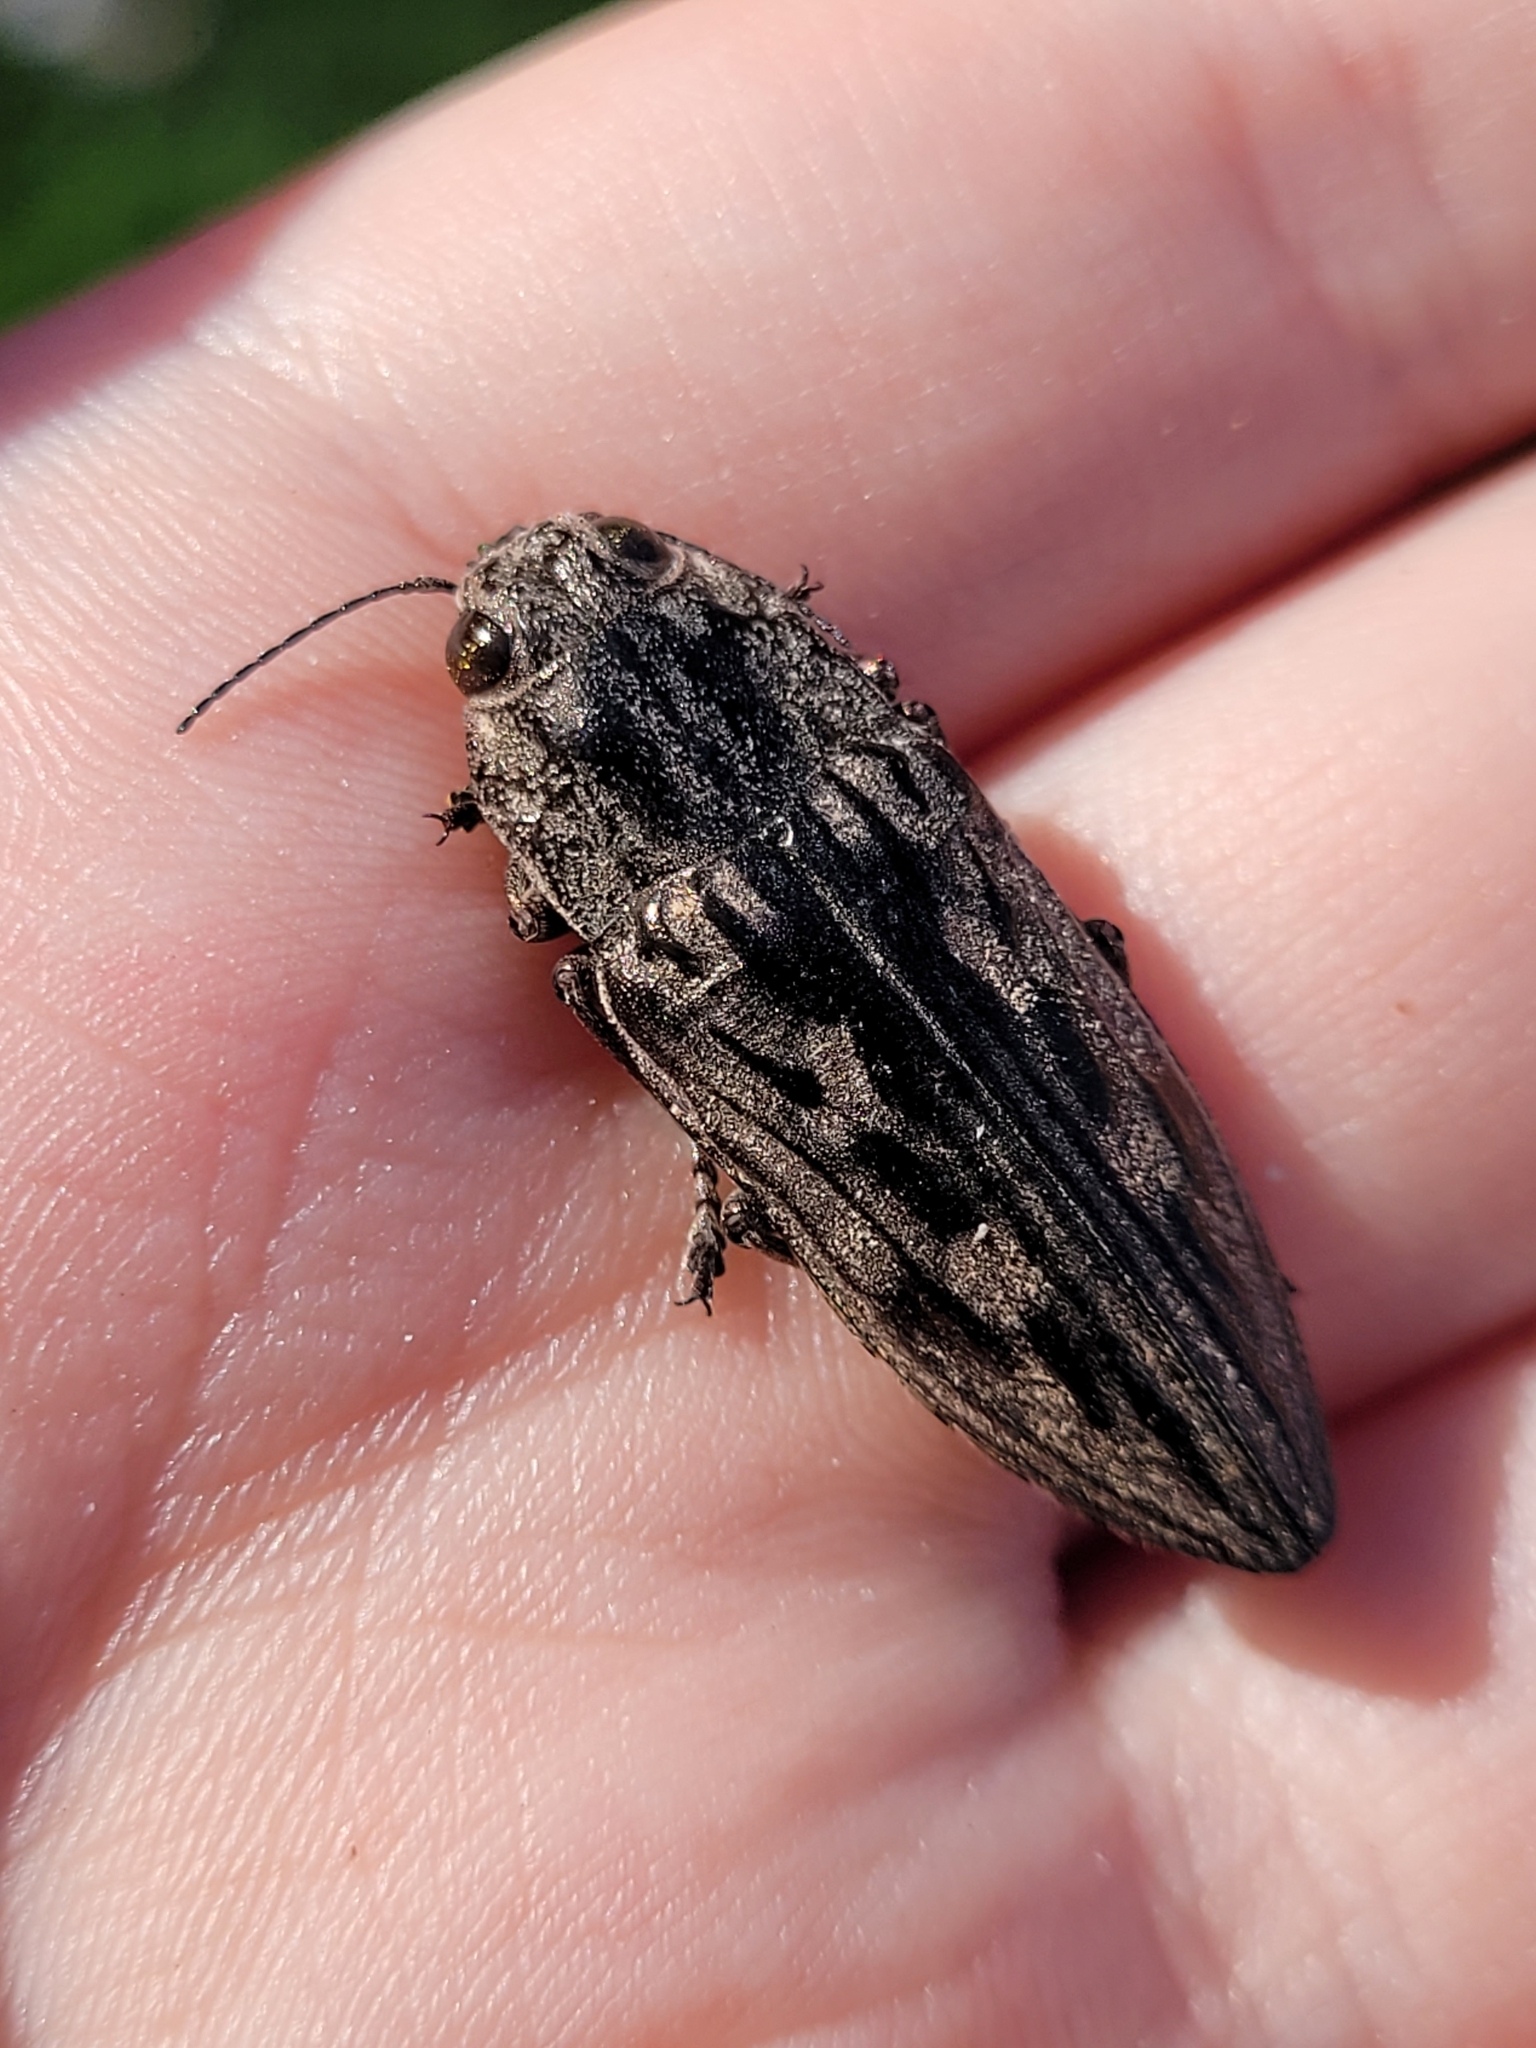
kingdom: Animalia
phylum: Arthropoda
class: Insecta
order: Coleoptera
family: Buprestidae
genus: Chalcophora
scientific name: Chalcophora virginiensis
